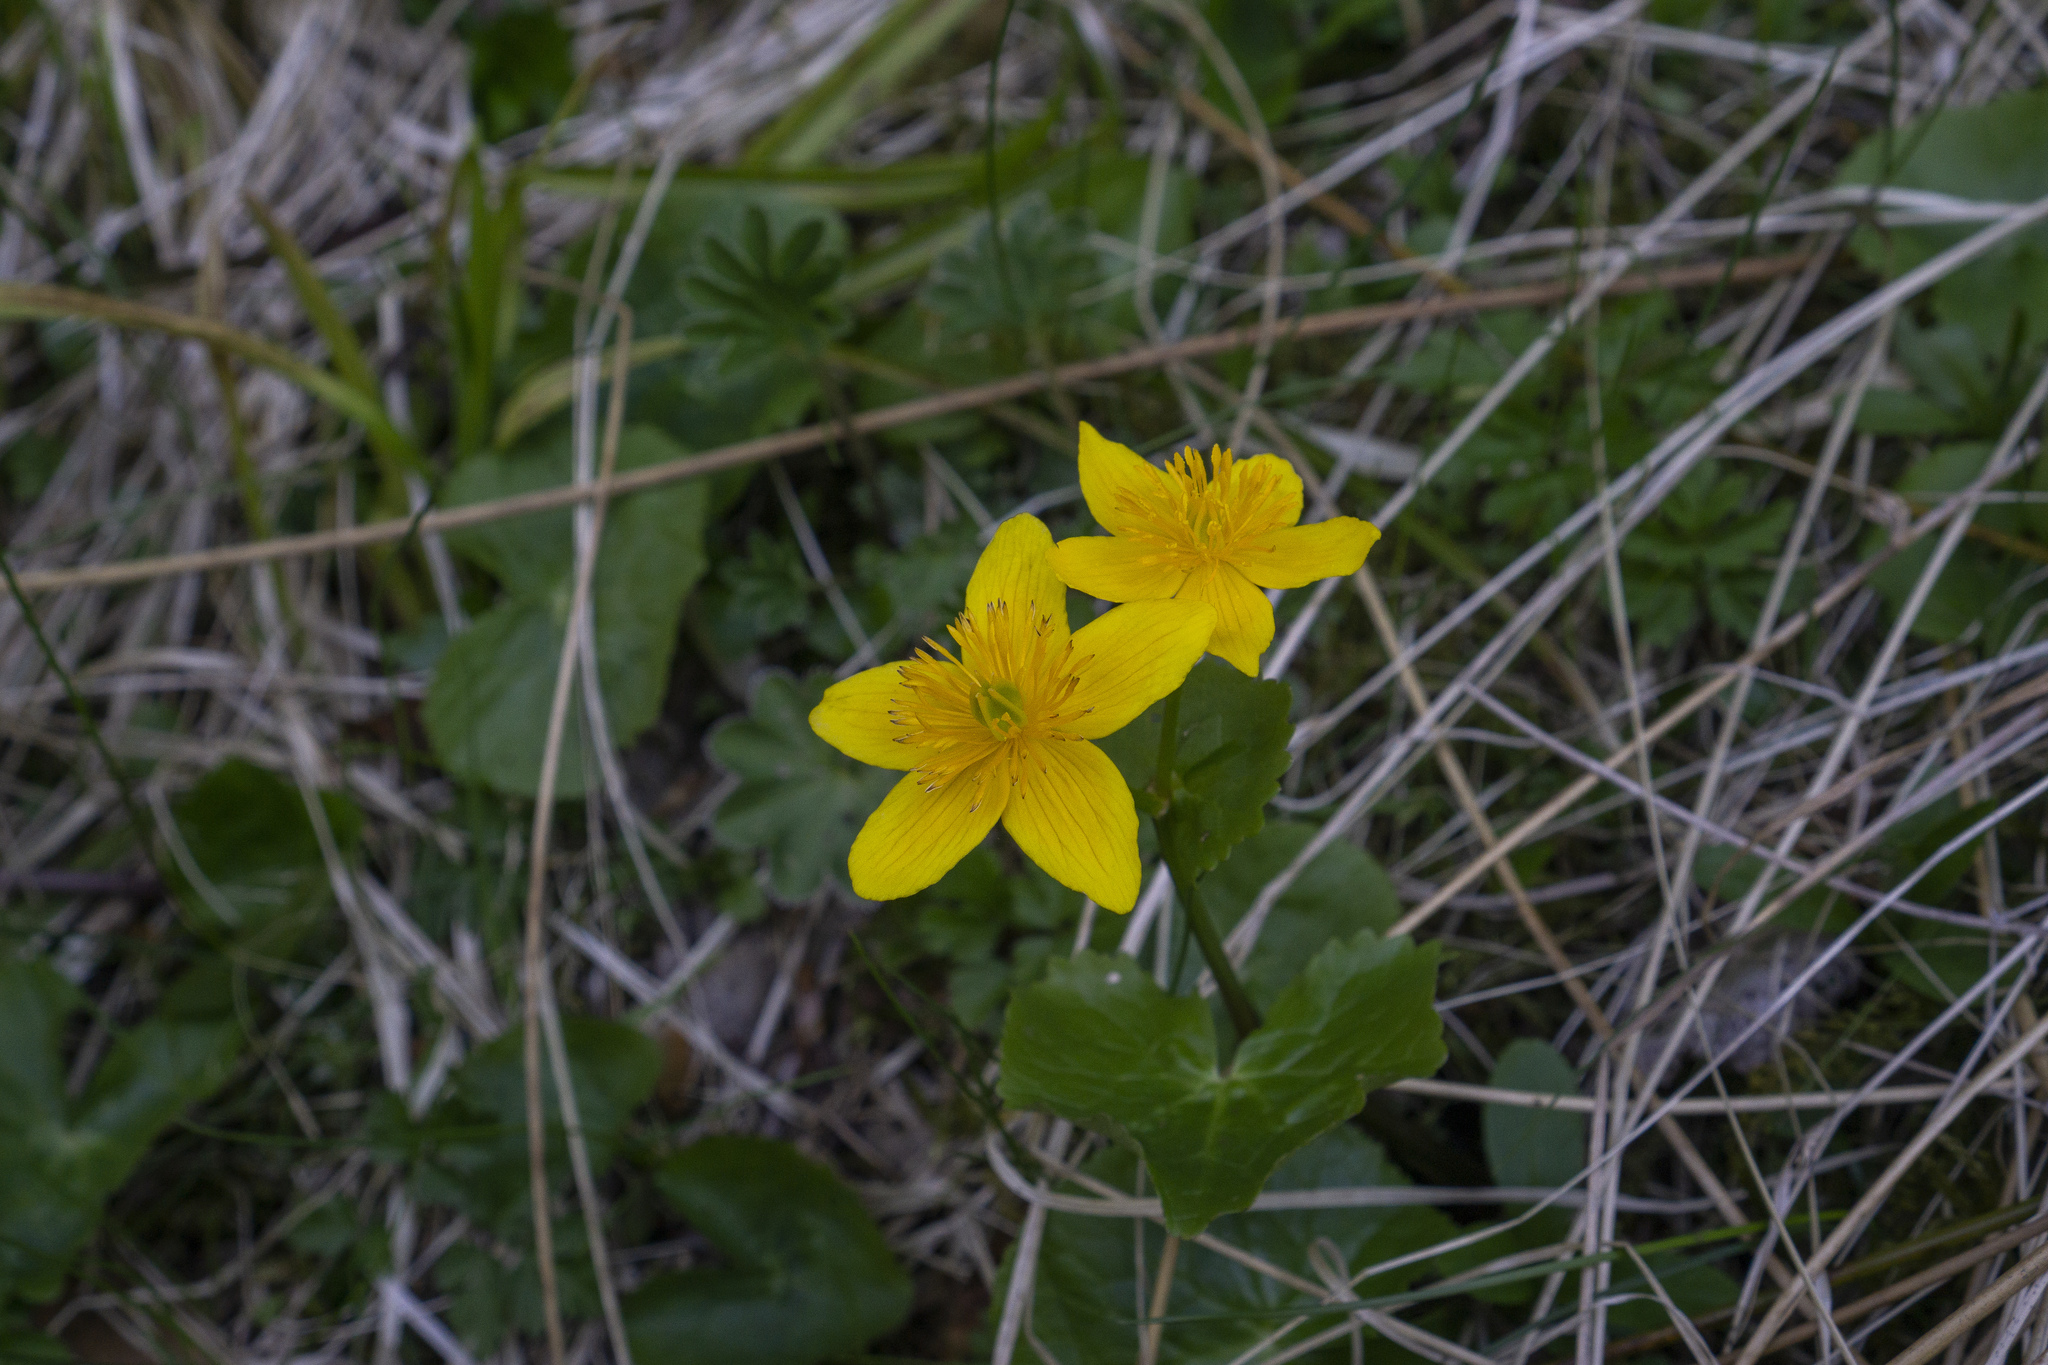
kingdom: Plantae
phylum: Tracheophyta
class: Magnoliopsida
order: Ranunculales
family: Ranunculaceae
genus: Caltha
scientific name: Caltha palustris
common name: Marsh marigold
